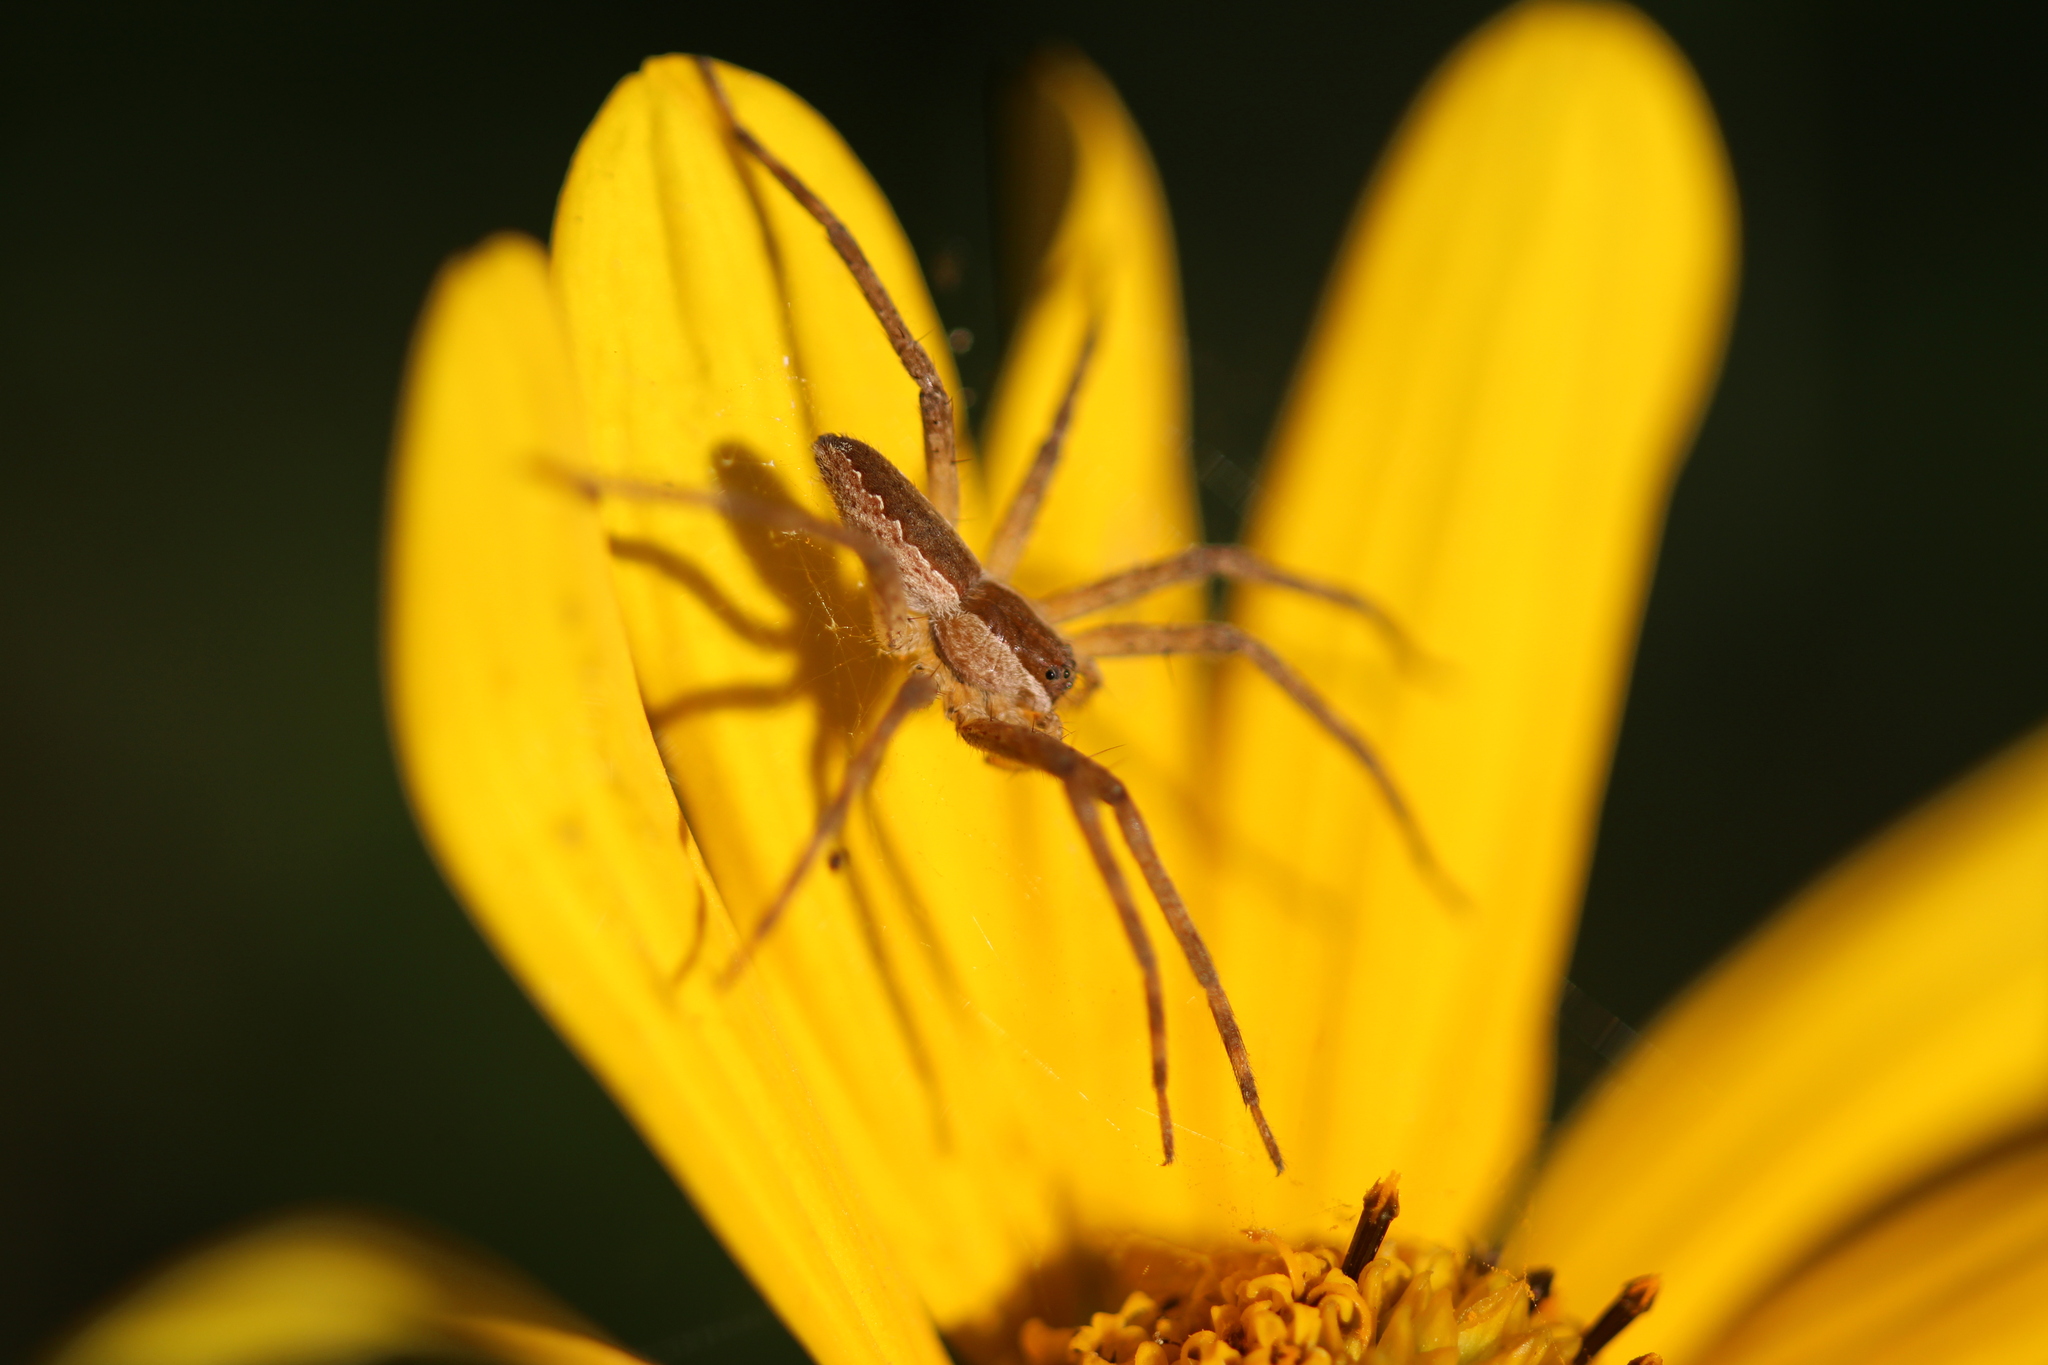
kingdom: Animalia
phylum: Arthropoda
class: Arachnida
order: Araneae
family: Pisauridae
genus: Pisaurina
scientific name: Pisaurina mira
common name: American nursery web spider
